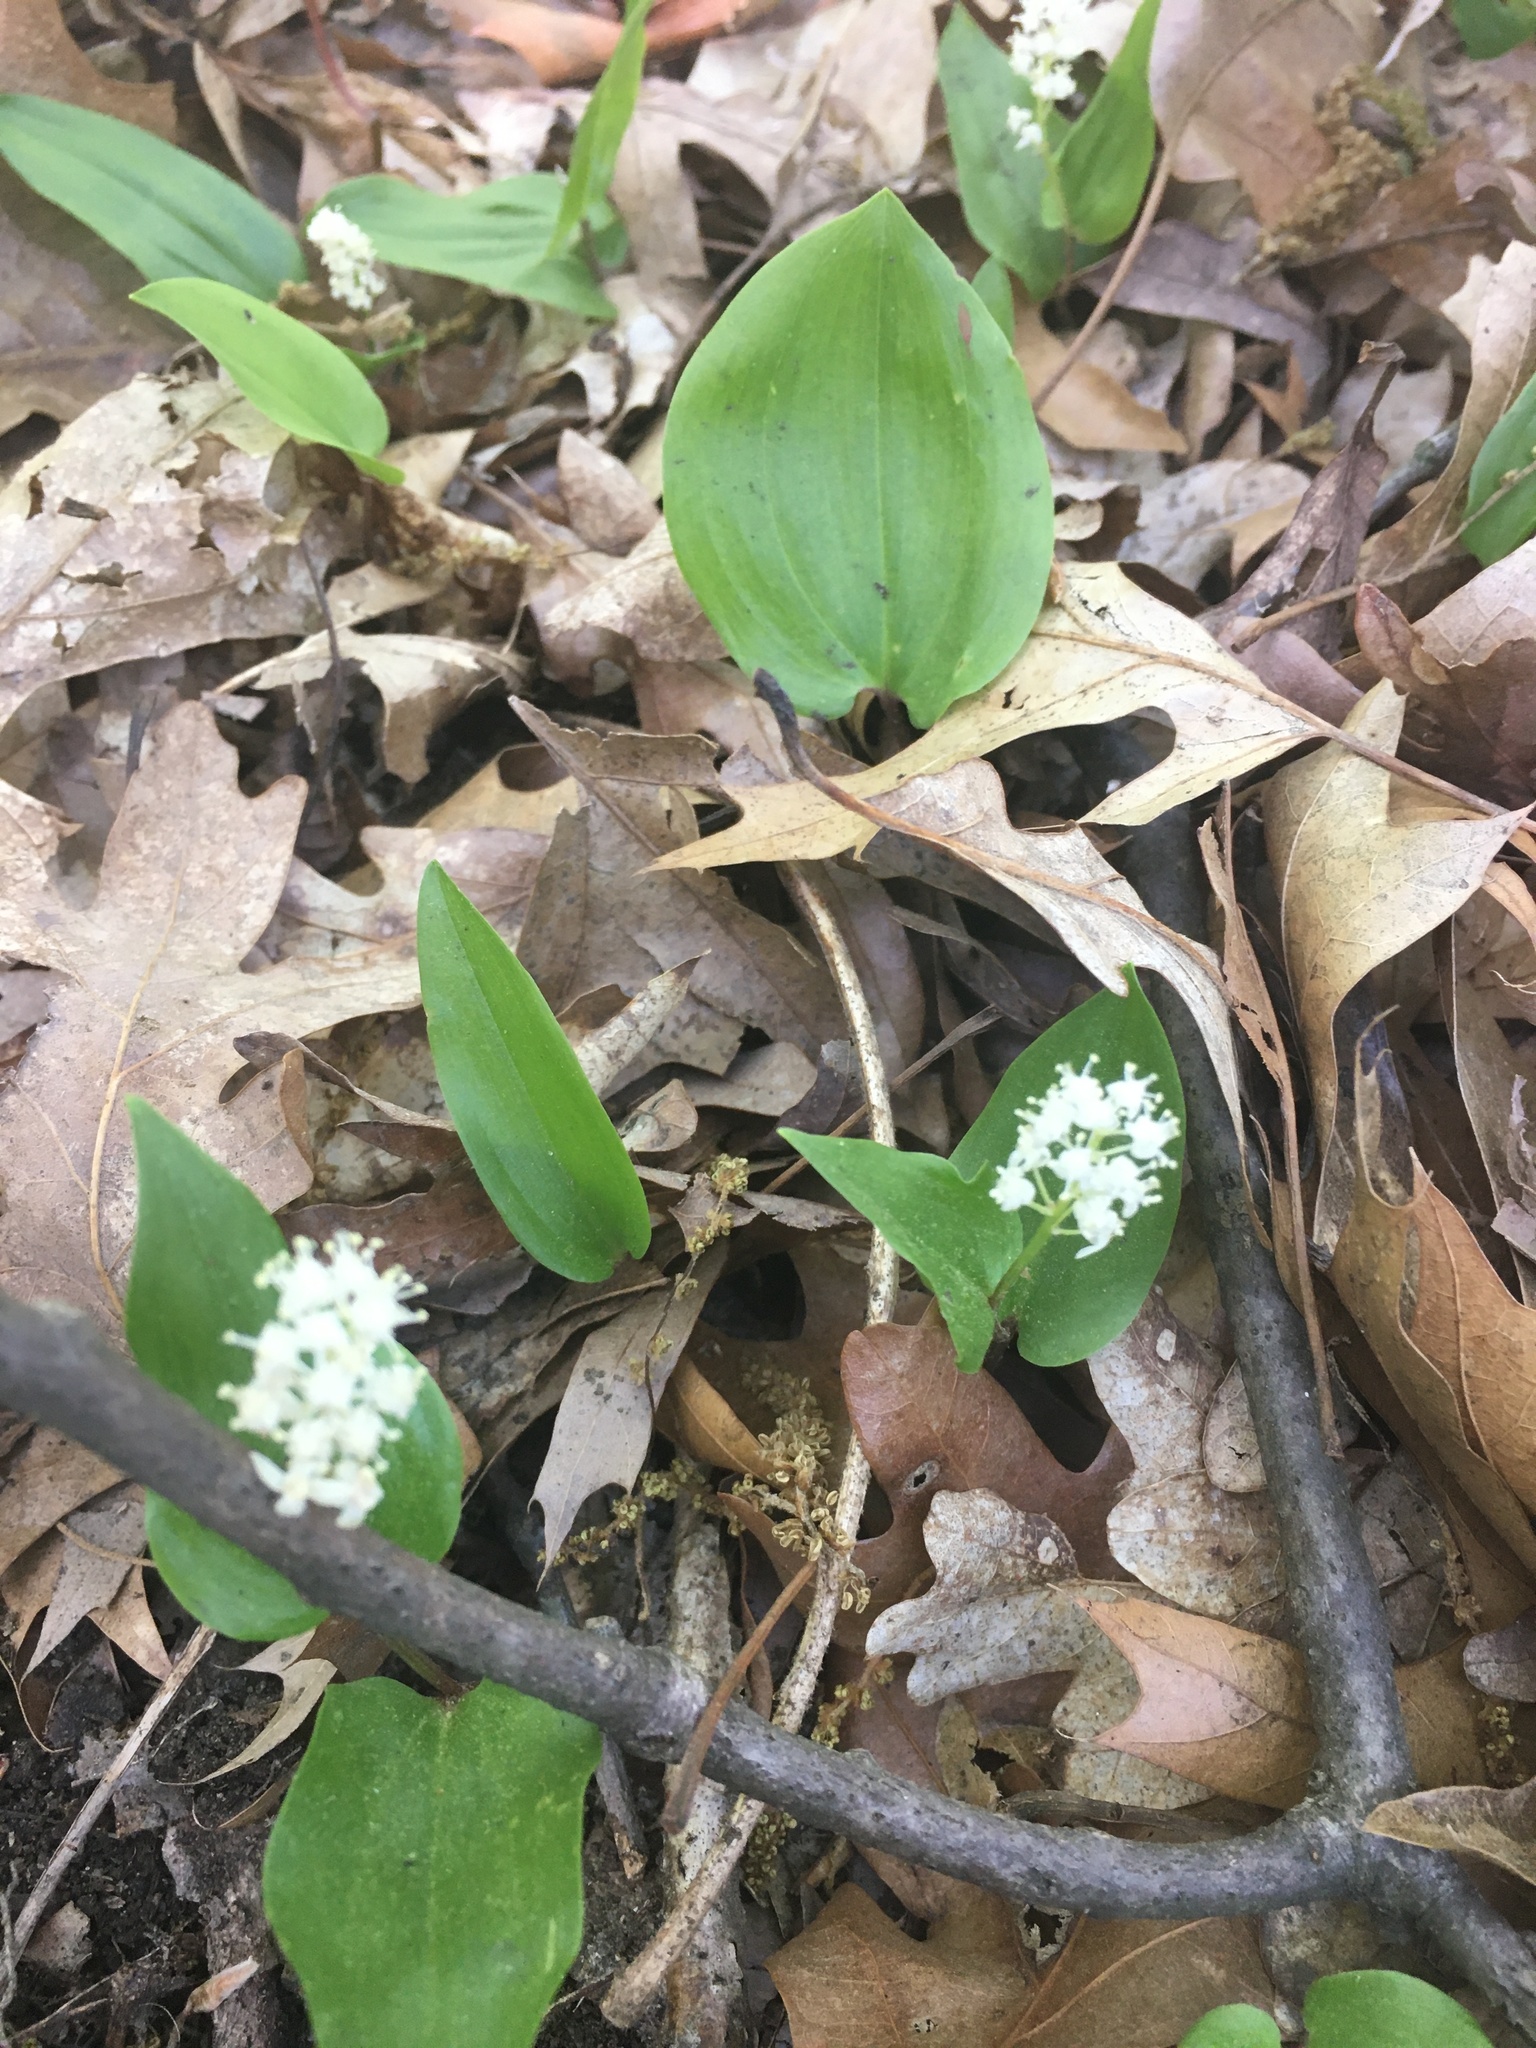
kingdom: Plantae
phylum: Tracheophyta
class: Liliopsida
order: Asparagales
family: Asparagaceae
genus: Maianthemum
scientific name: Maianthemum canadense
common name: False lily-of-the-valley
